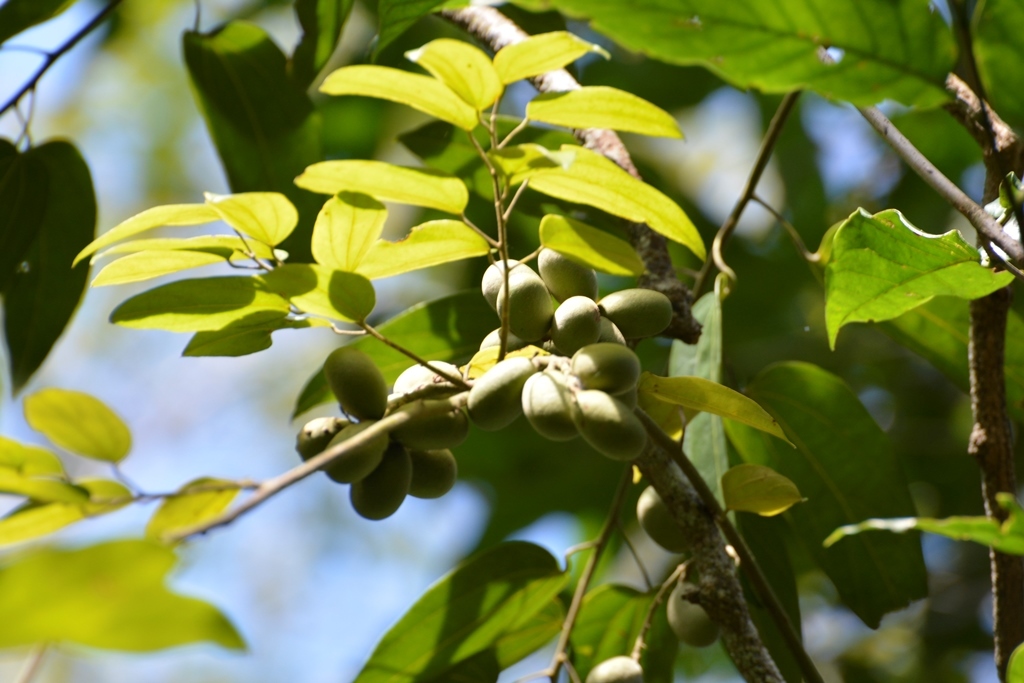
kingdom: Plantae
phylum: Tracheophyta
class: Magnoliopsida
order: Ranunculales
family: Menispermaceae
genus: Abuta
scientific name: Abuta chiapasensis
